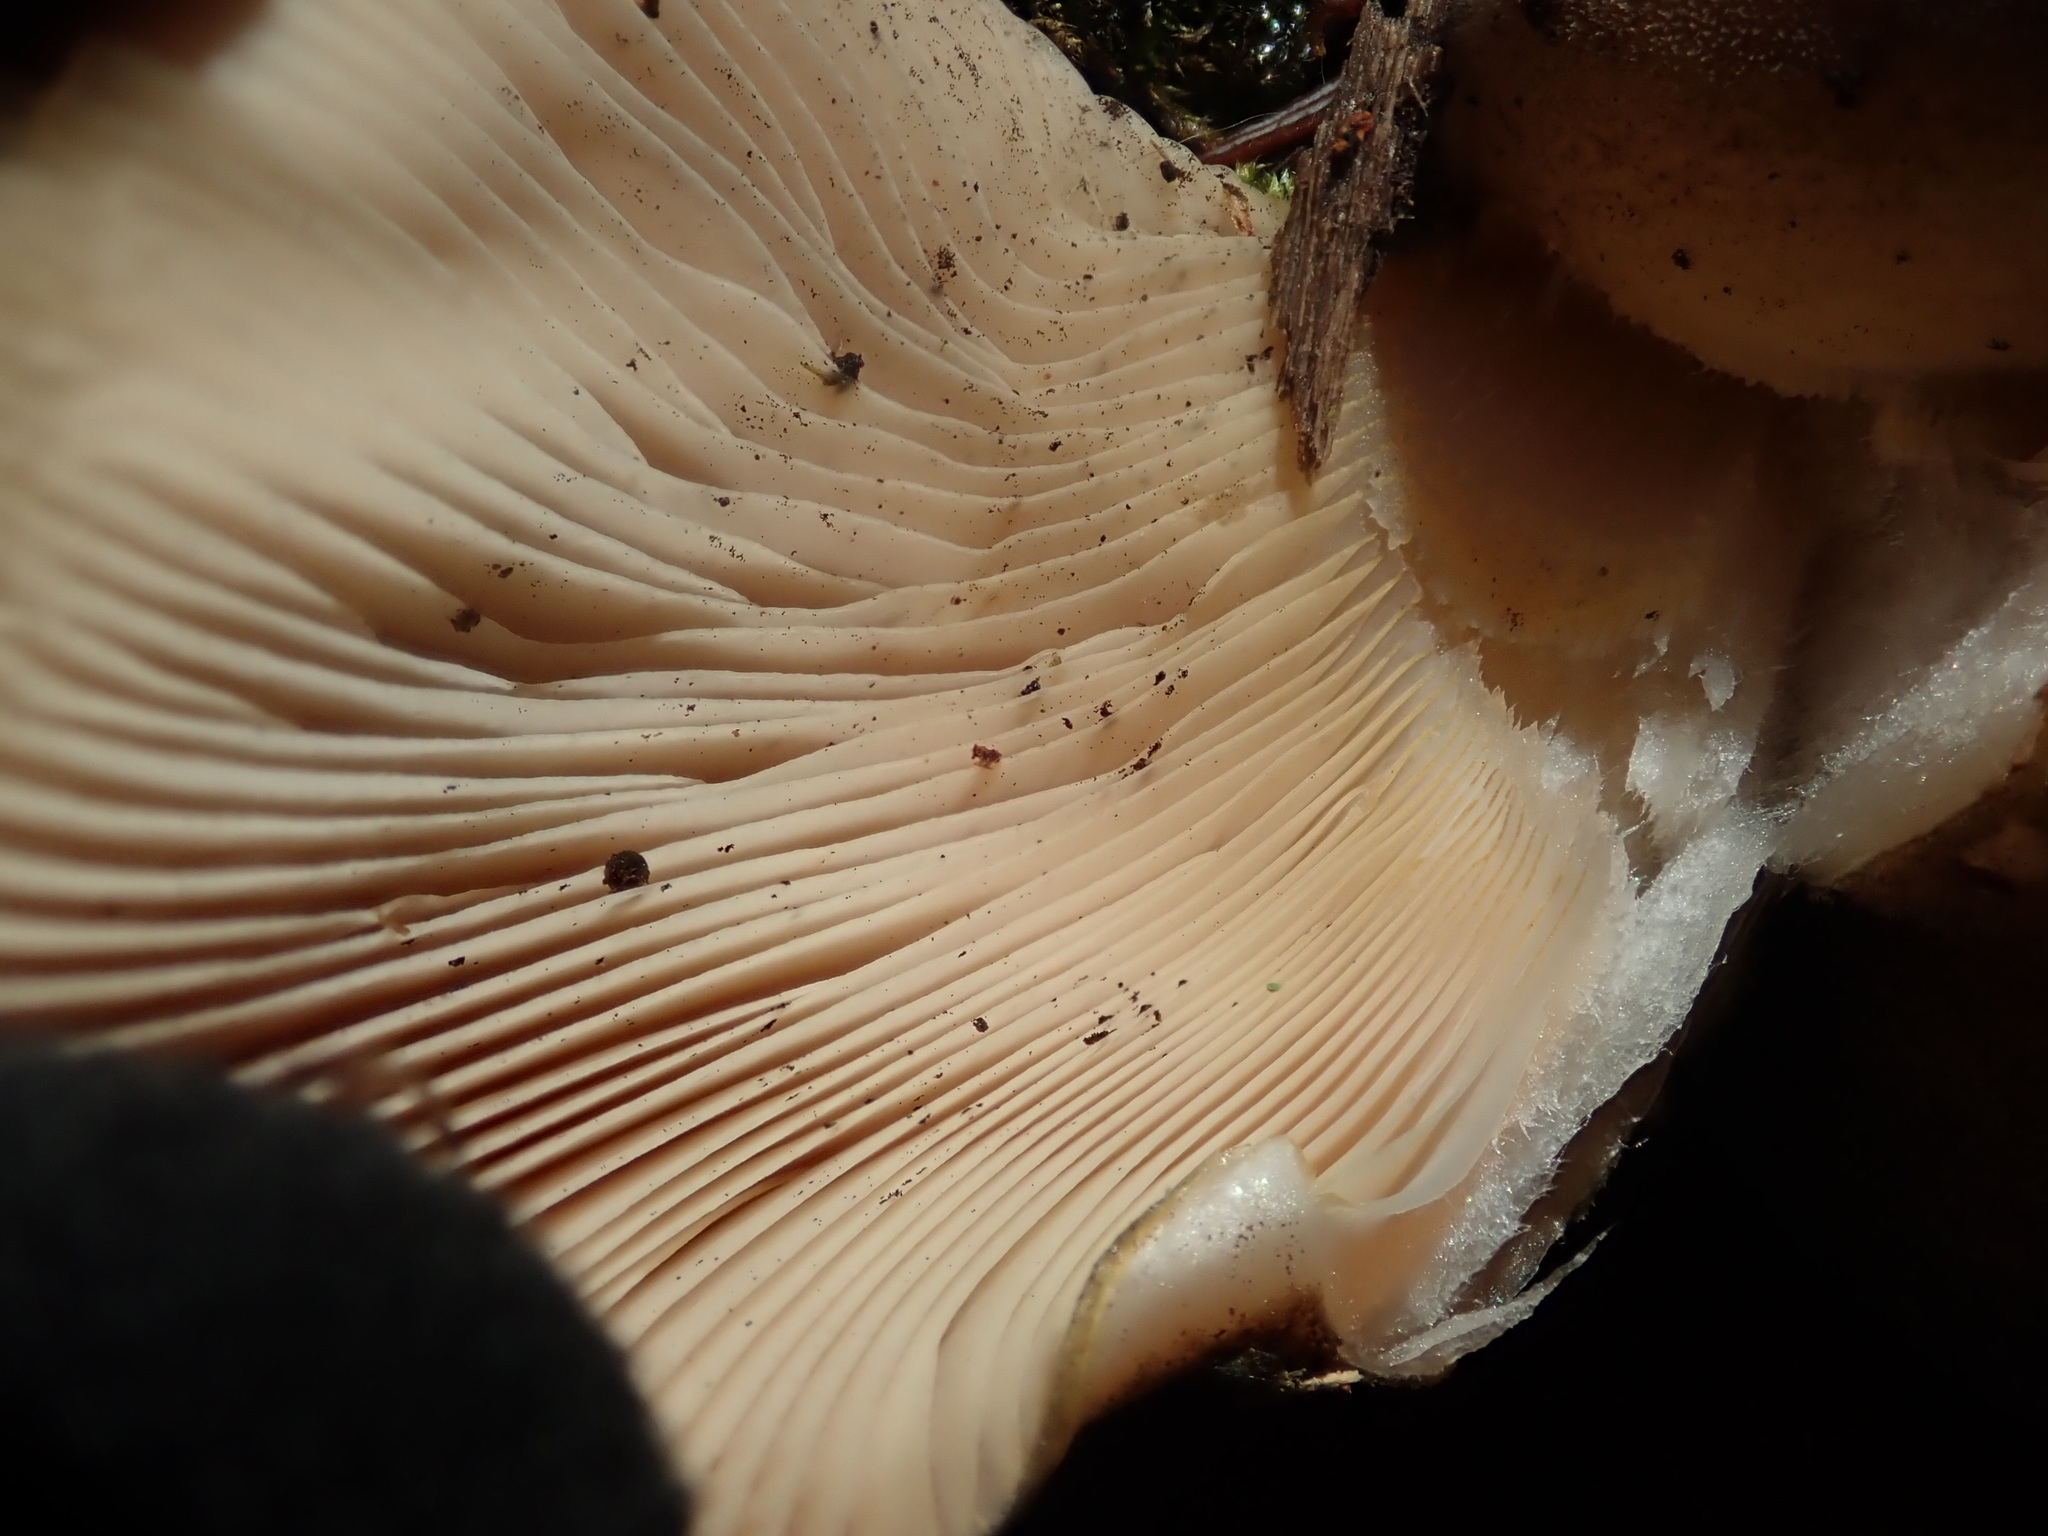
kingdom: Fungi
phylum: Basidiomycota
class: Agaricomycetes
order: Agaricales
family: Sarcomyxaceae
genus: Sarcomyxa
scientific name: Sarcomyxa serotina
